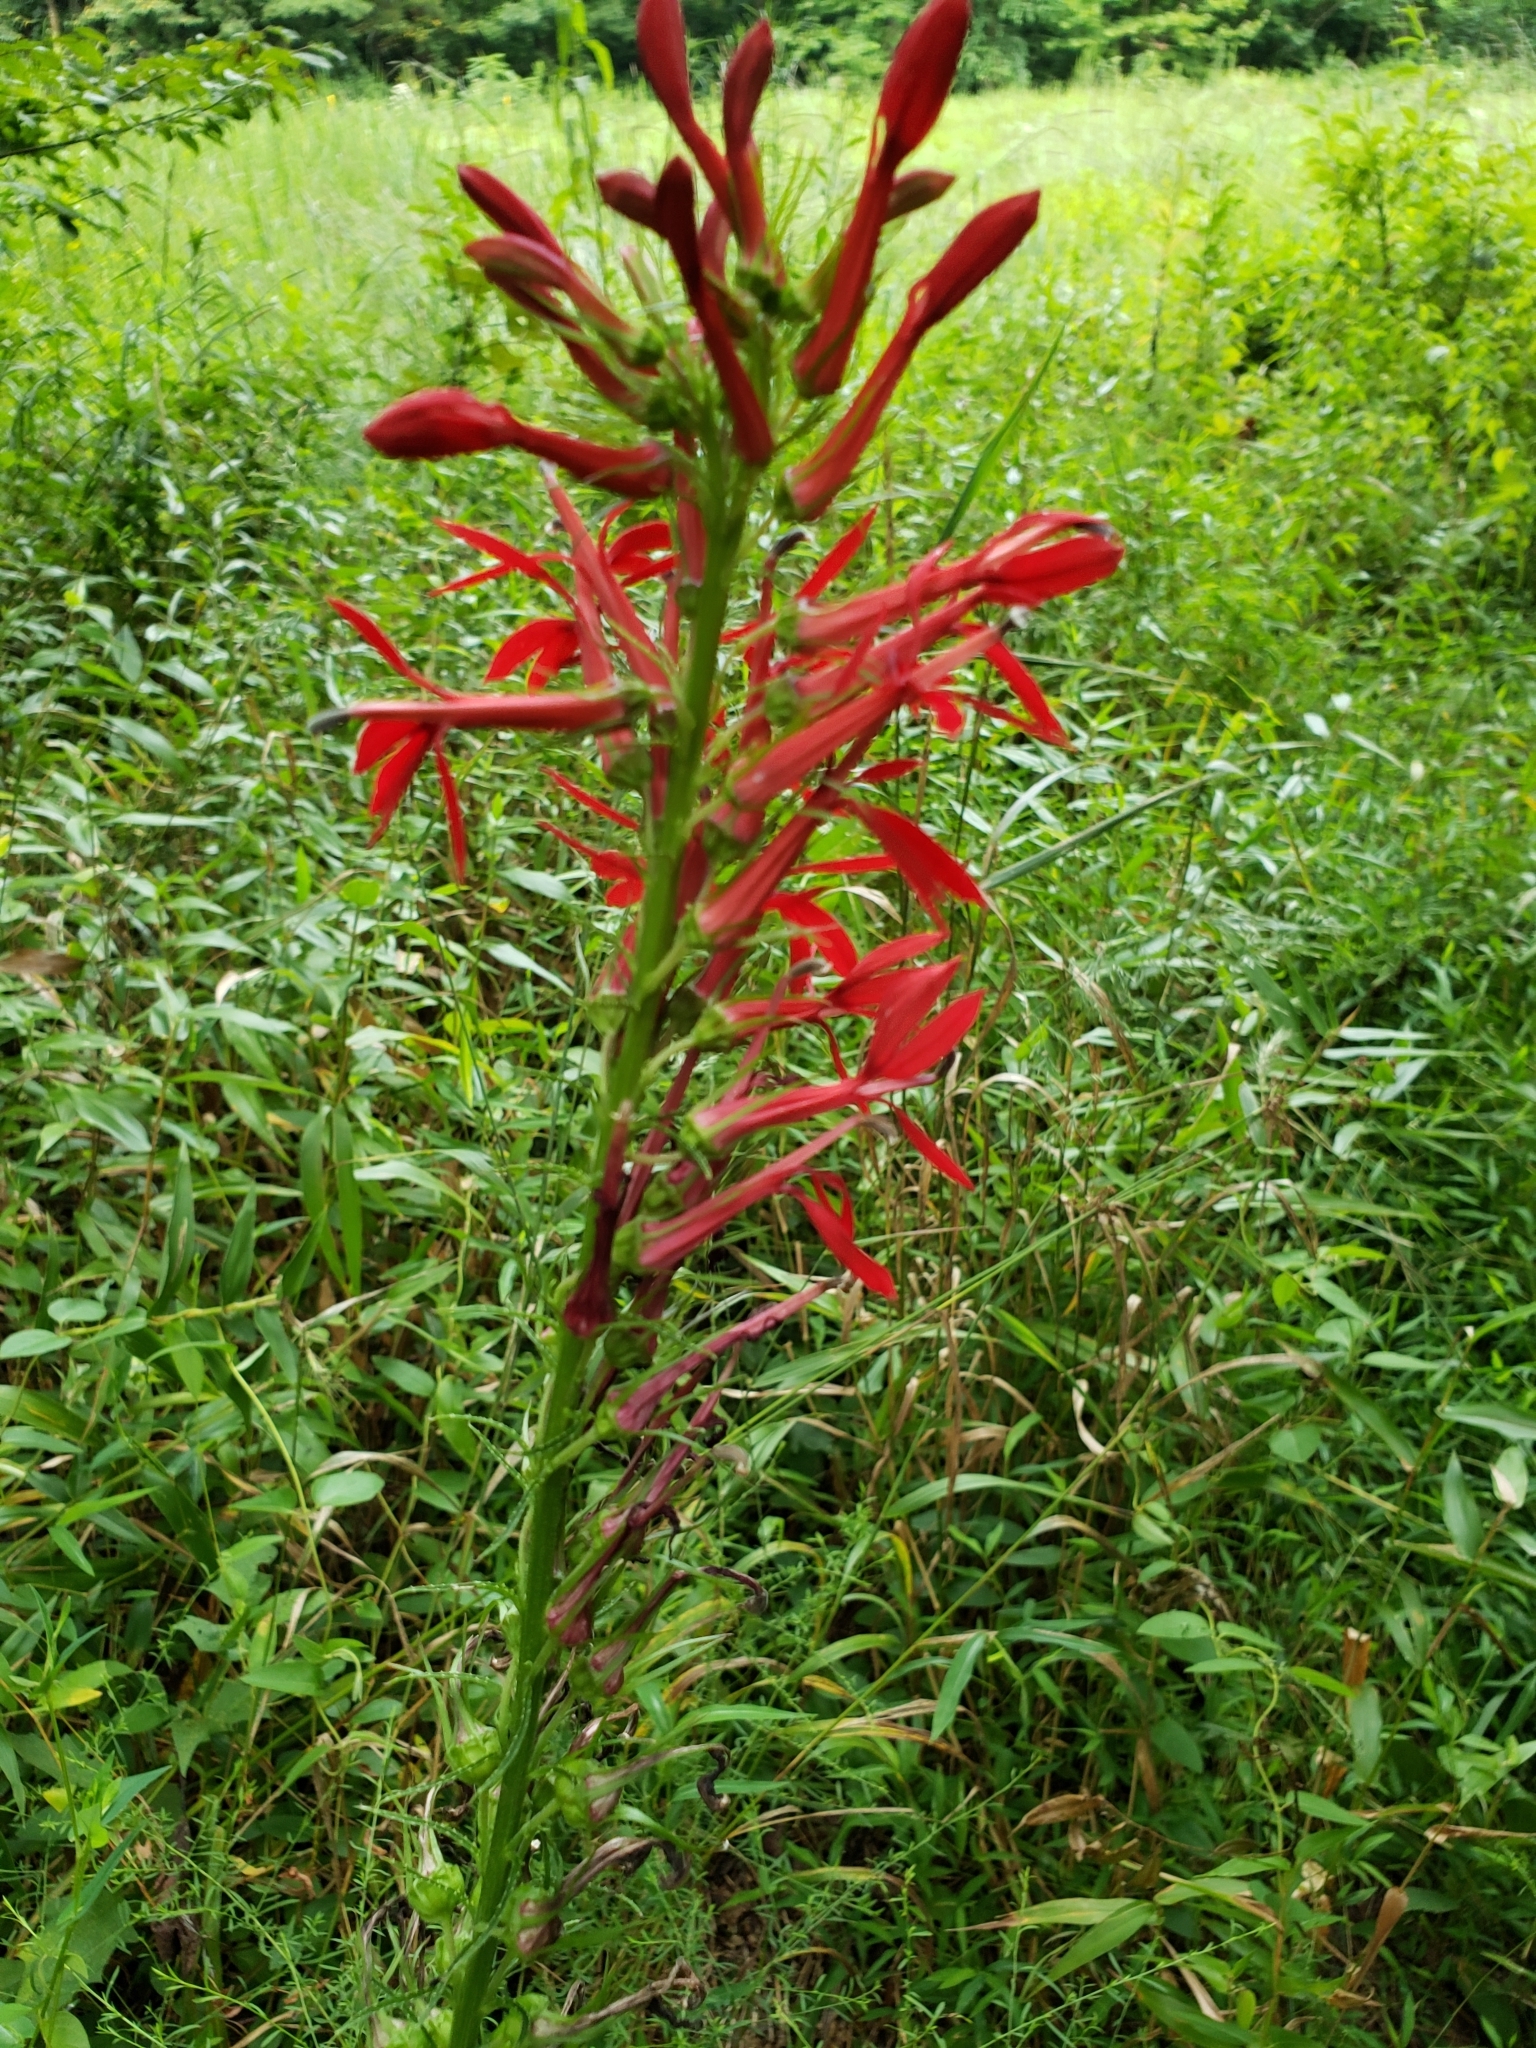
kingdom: Plantae
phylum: Tracheophyta
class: Magnoliopsida
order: Asterales
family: Campanulaceae
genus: Lobelia
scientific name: Lobelia cardinalis
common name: Cardinal flower
